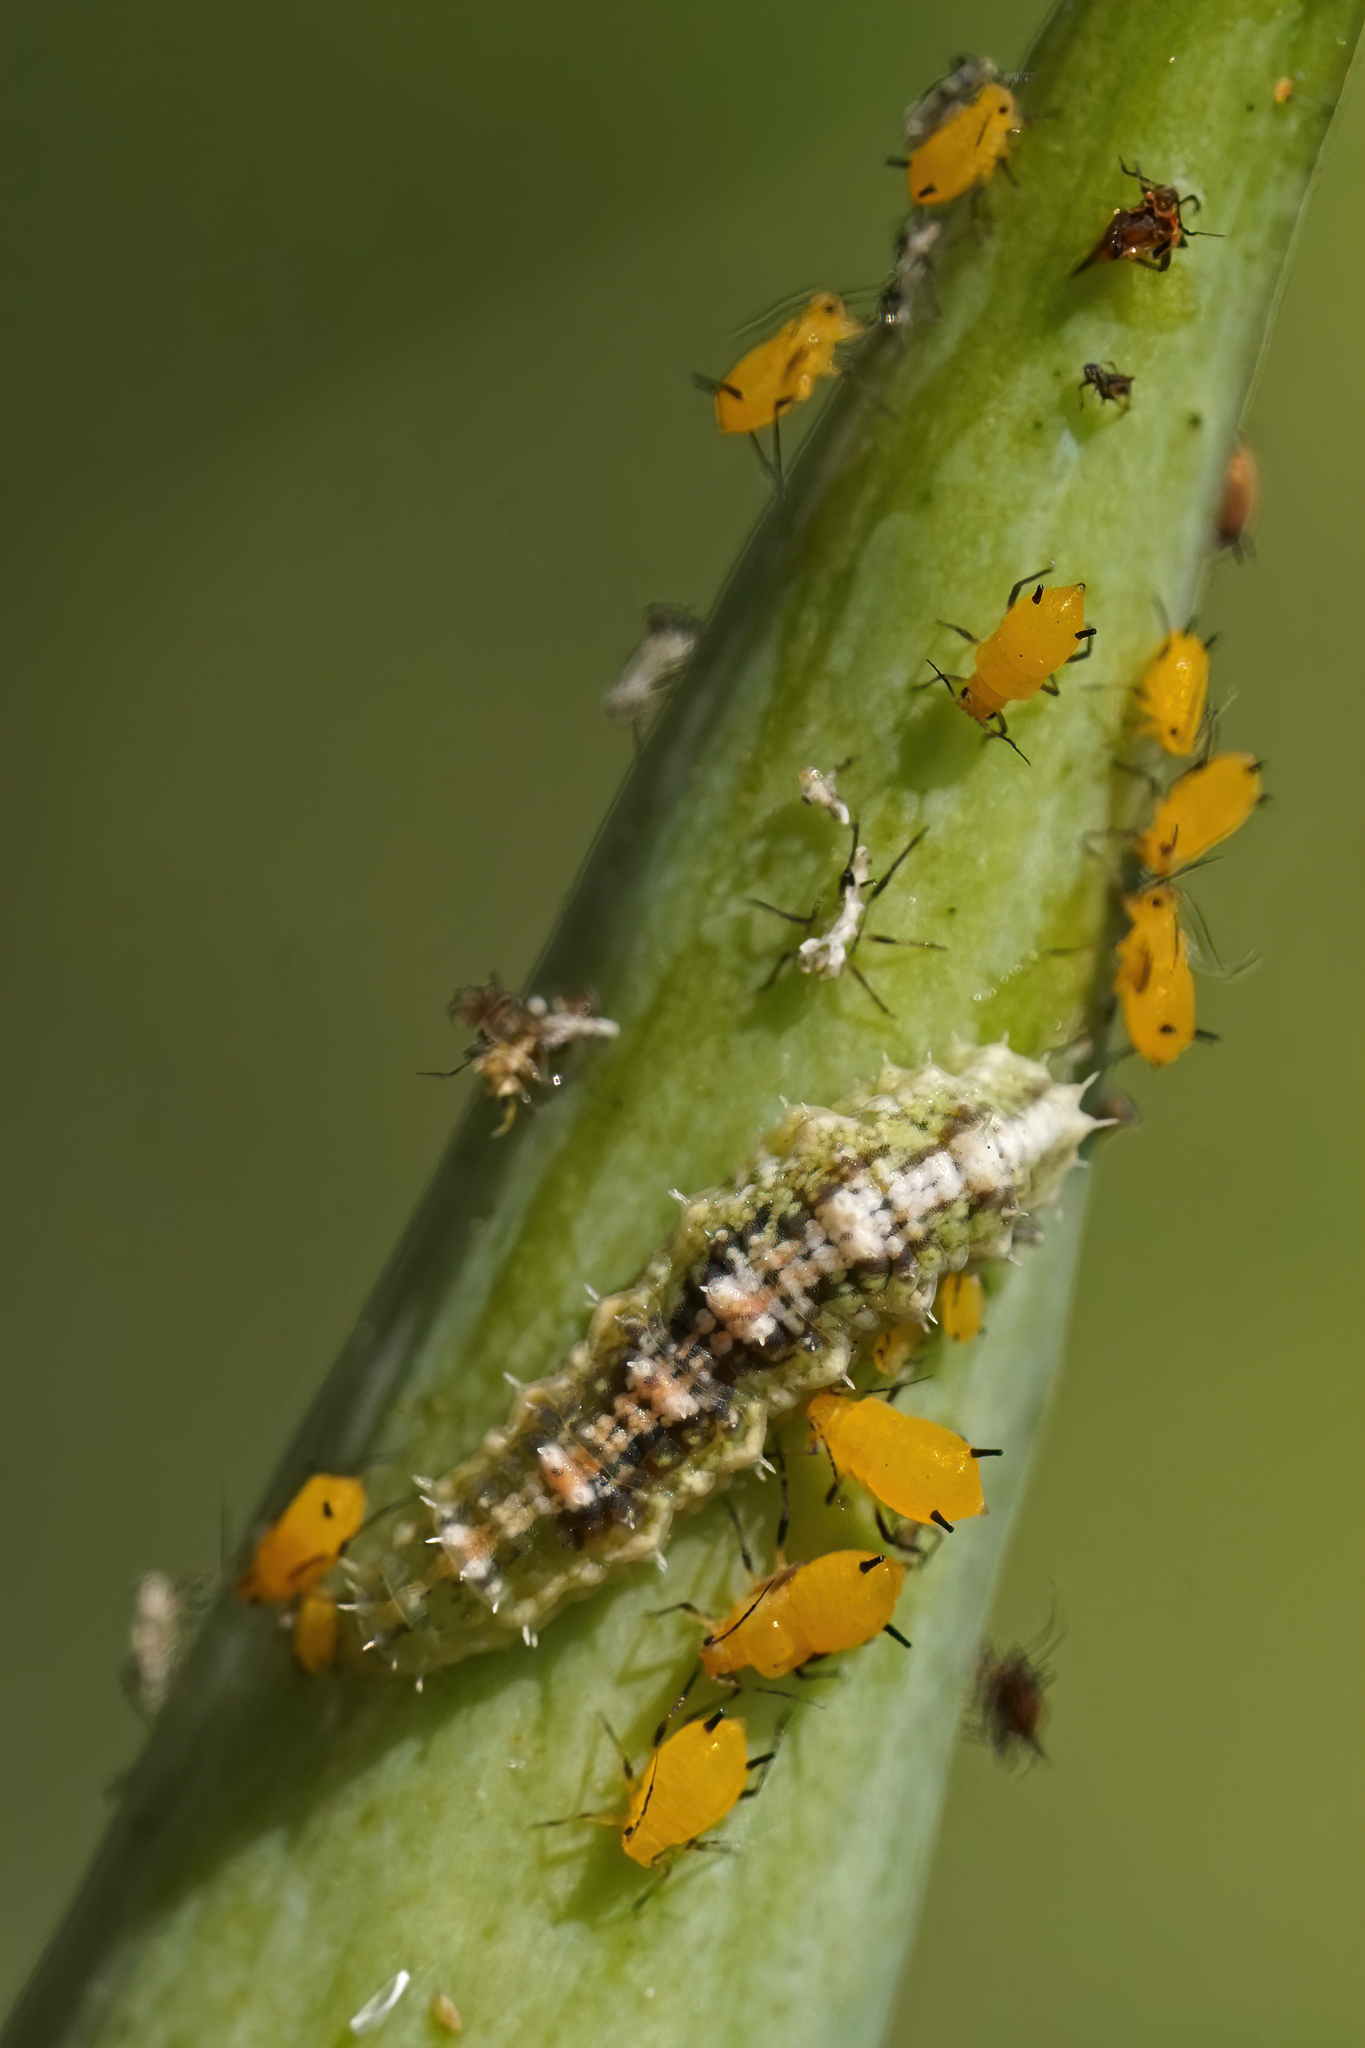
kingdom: Animalia
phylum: Arthropoda
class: Insecta
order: Diptera
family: Syrphidae
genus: Dioprosopa
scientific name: Dioprosopa clavatus
